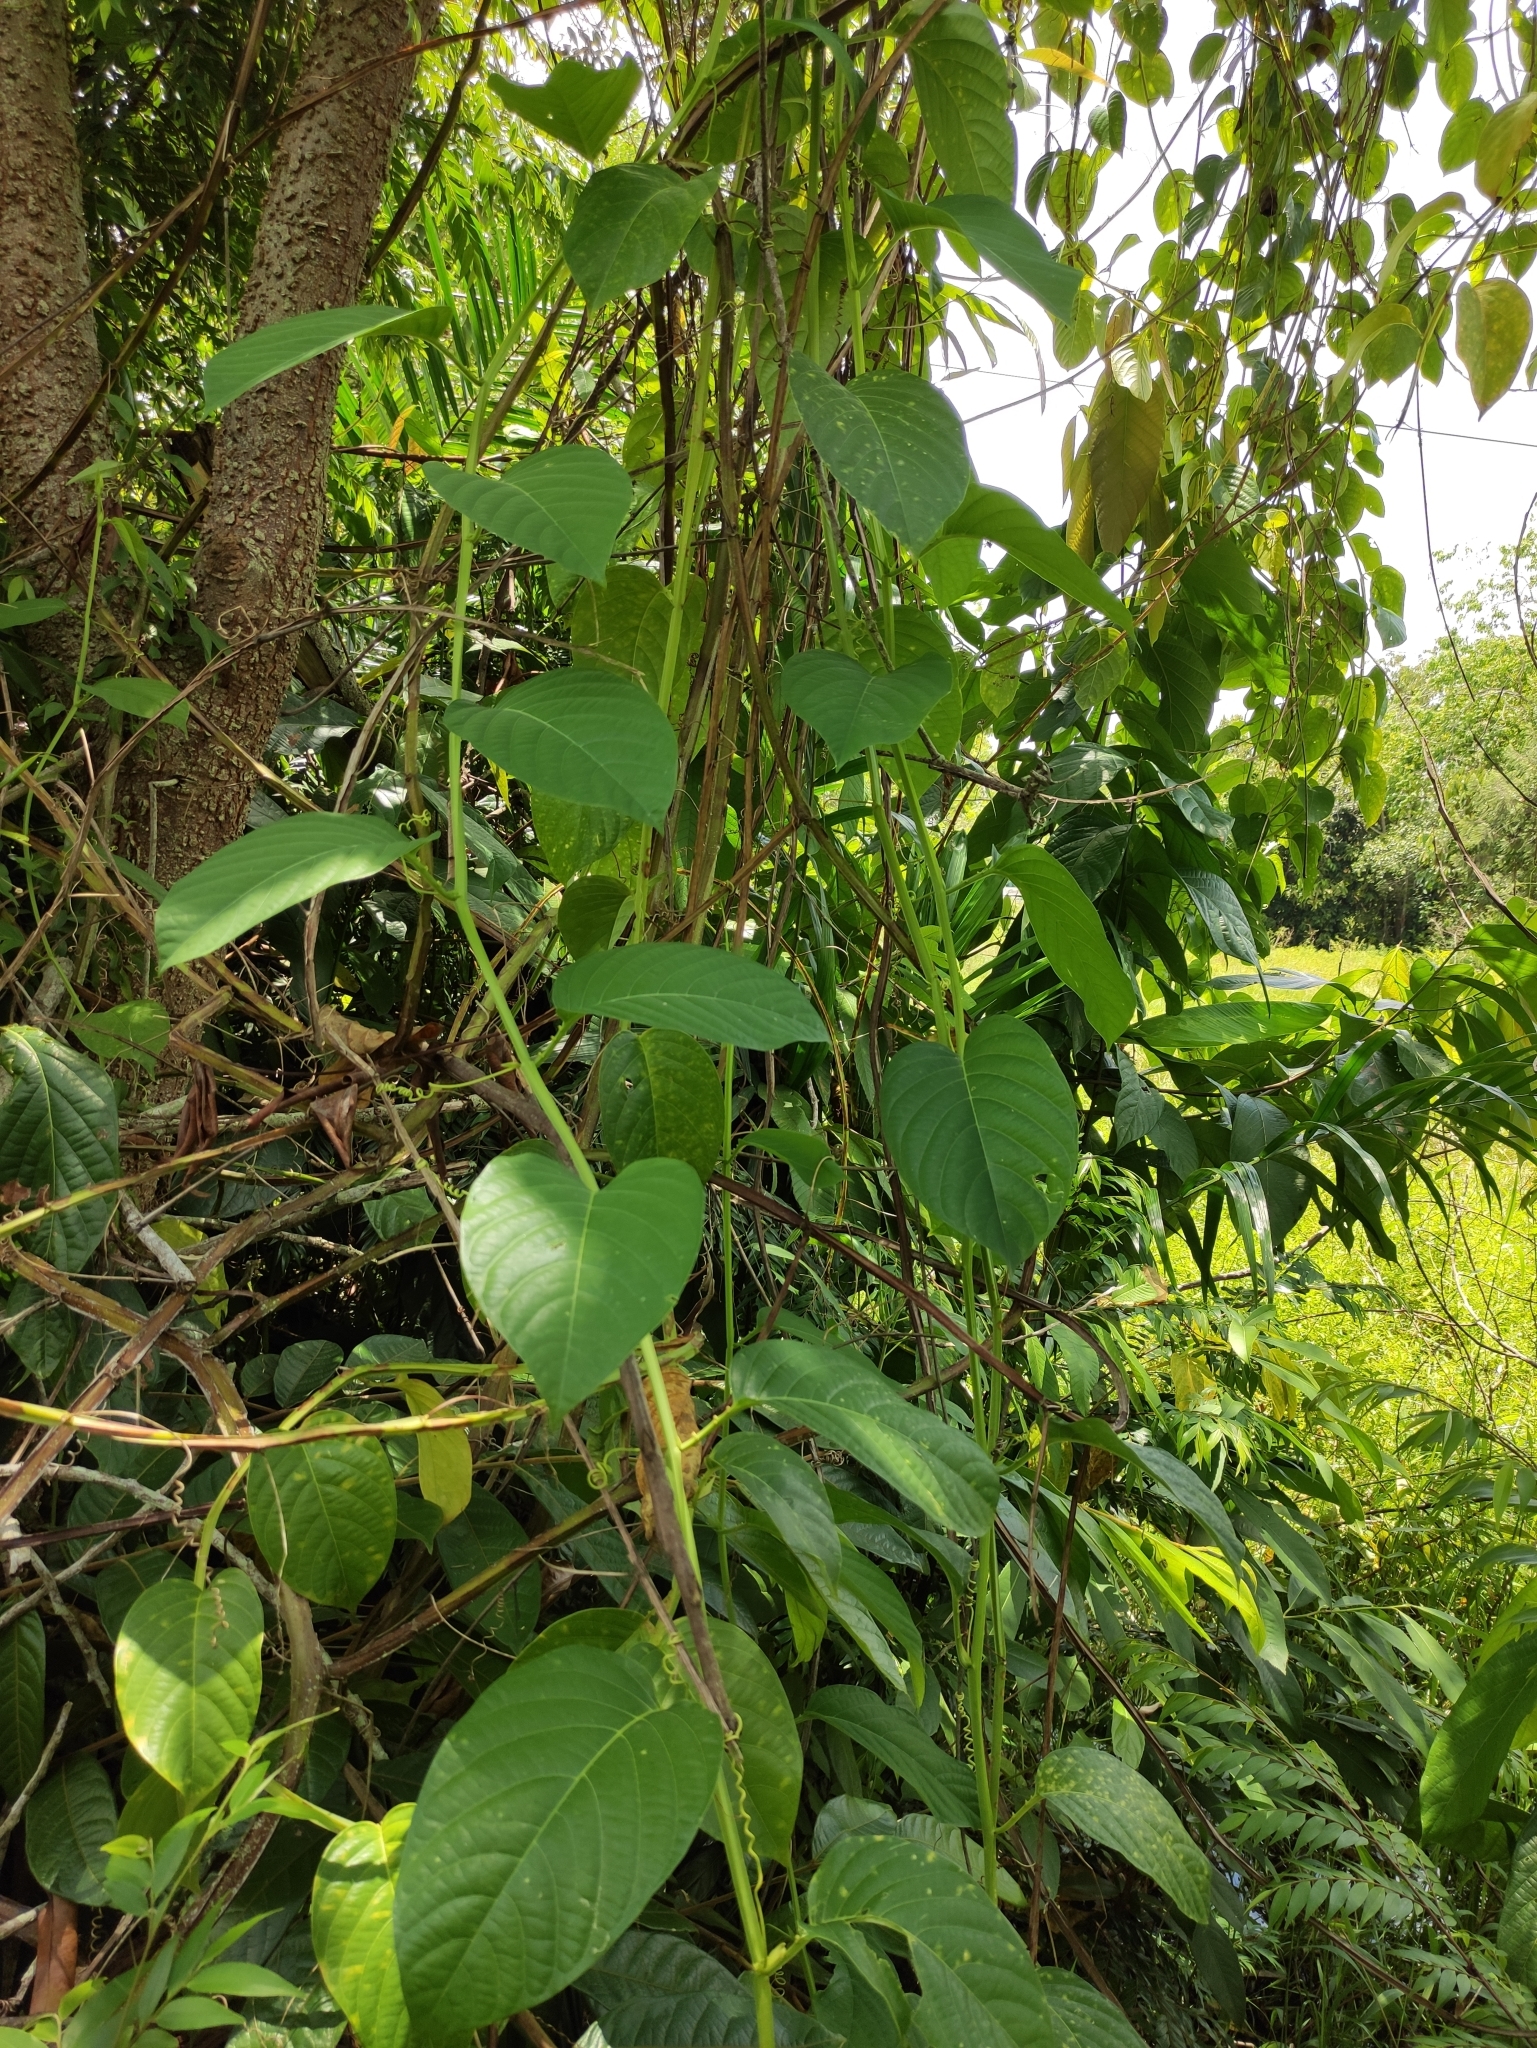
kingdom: Plantae
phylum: Tracheophyta
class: Magnoliopsida
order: Malpighiales
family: Passifloraceae
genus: Passiflora
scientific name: Passiflora quadrangularis
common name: Giant granadilla
